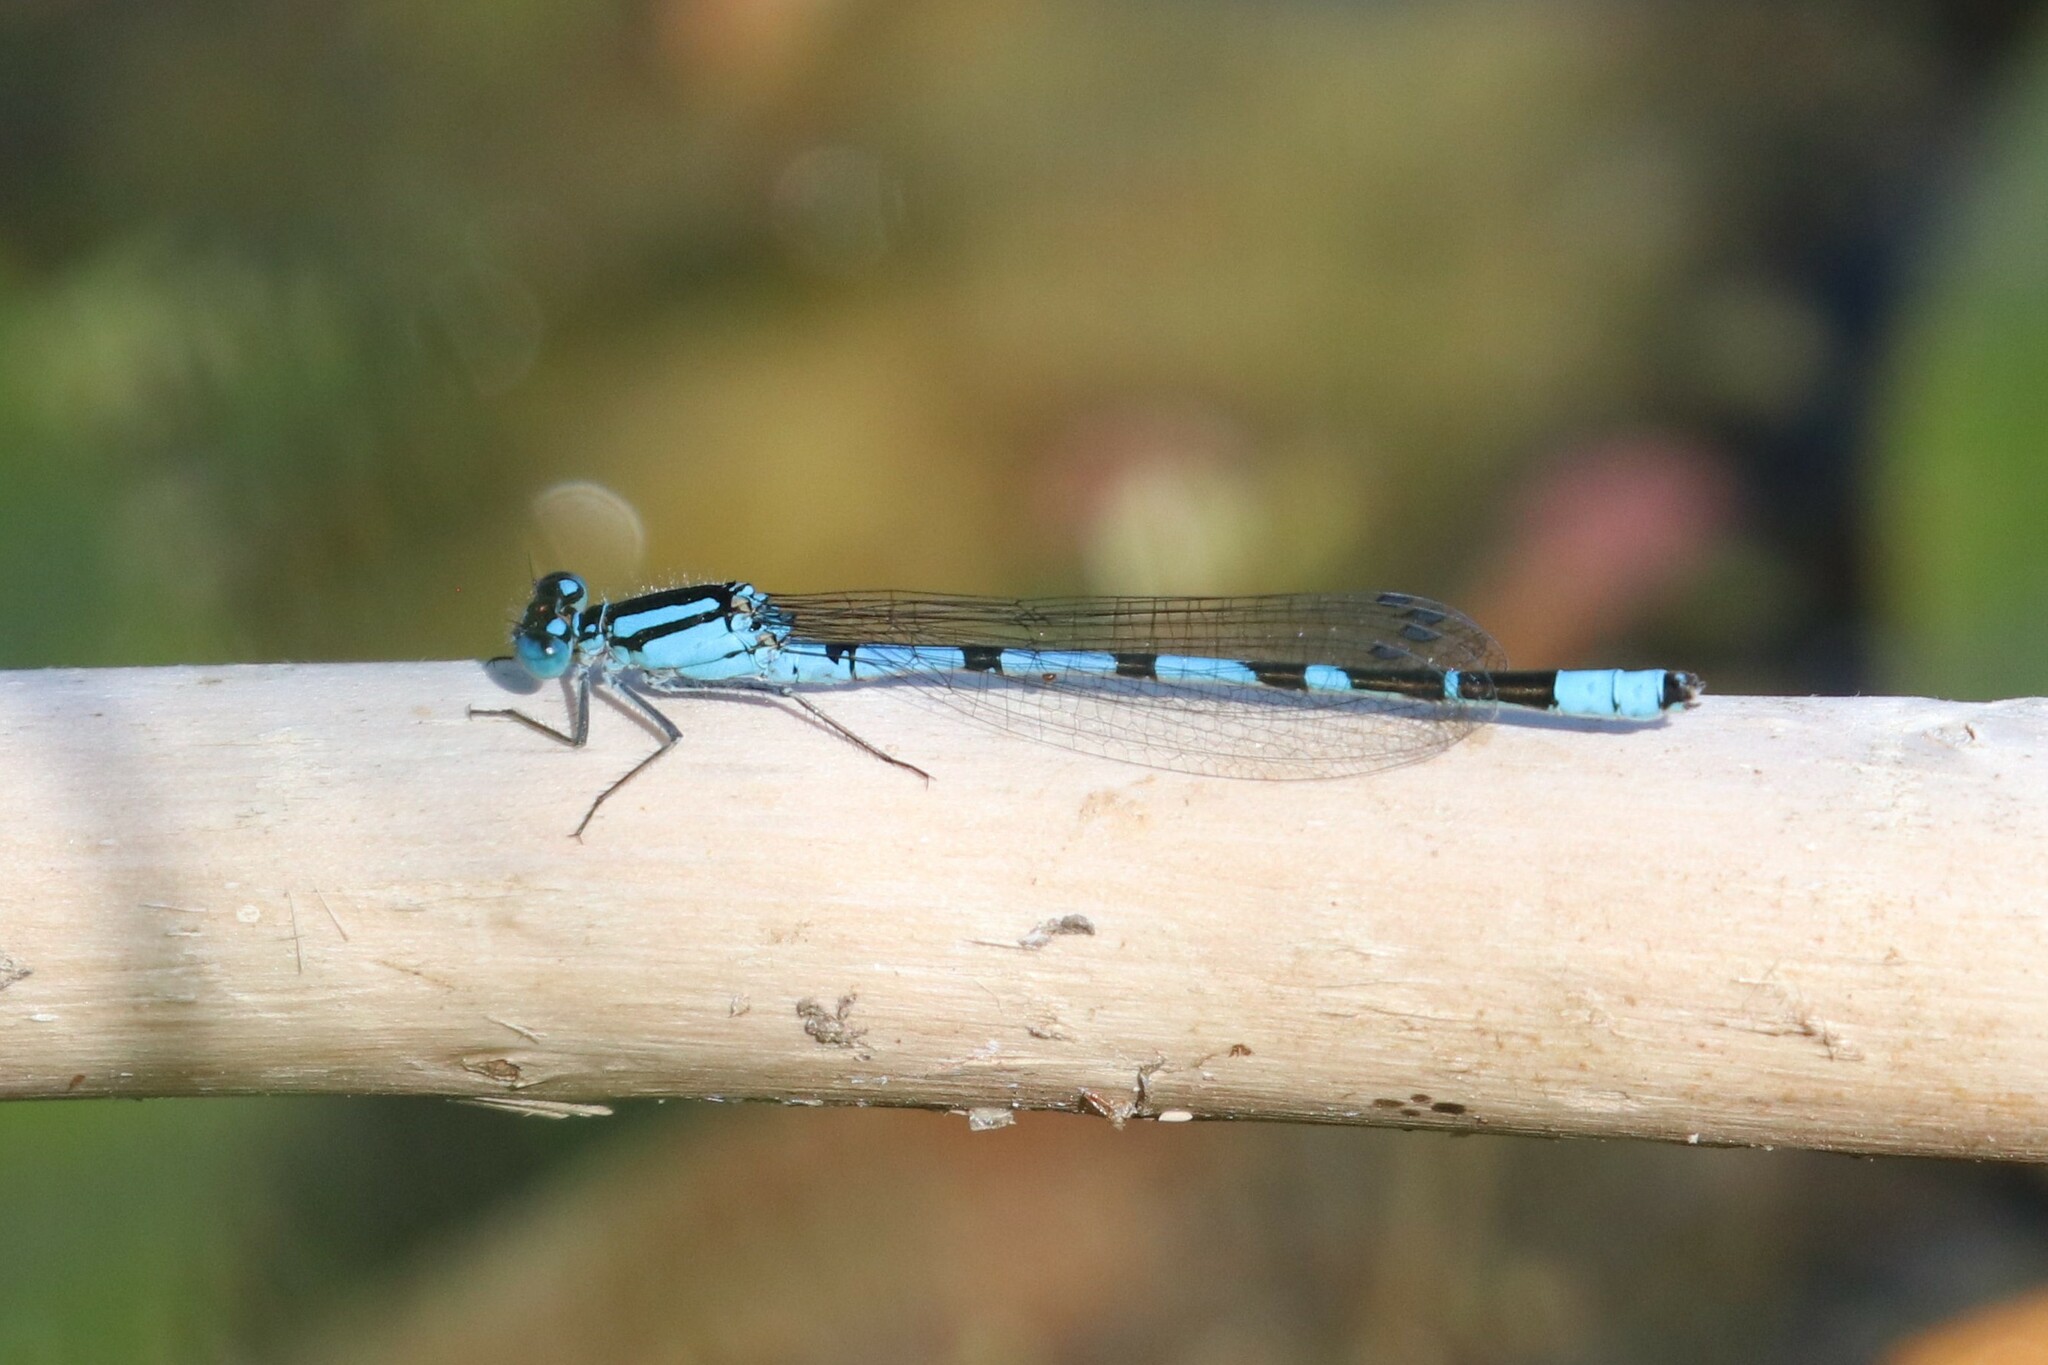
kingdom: Animalia
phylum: Arthropoda
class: Insecta
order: Odonata
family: Coenagrionidae
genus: Enallagma
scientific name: Enallagma cyathigerum
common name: Common blue damselfly
